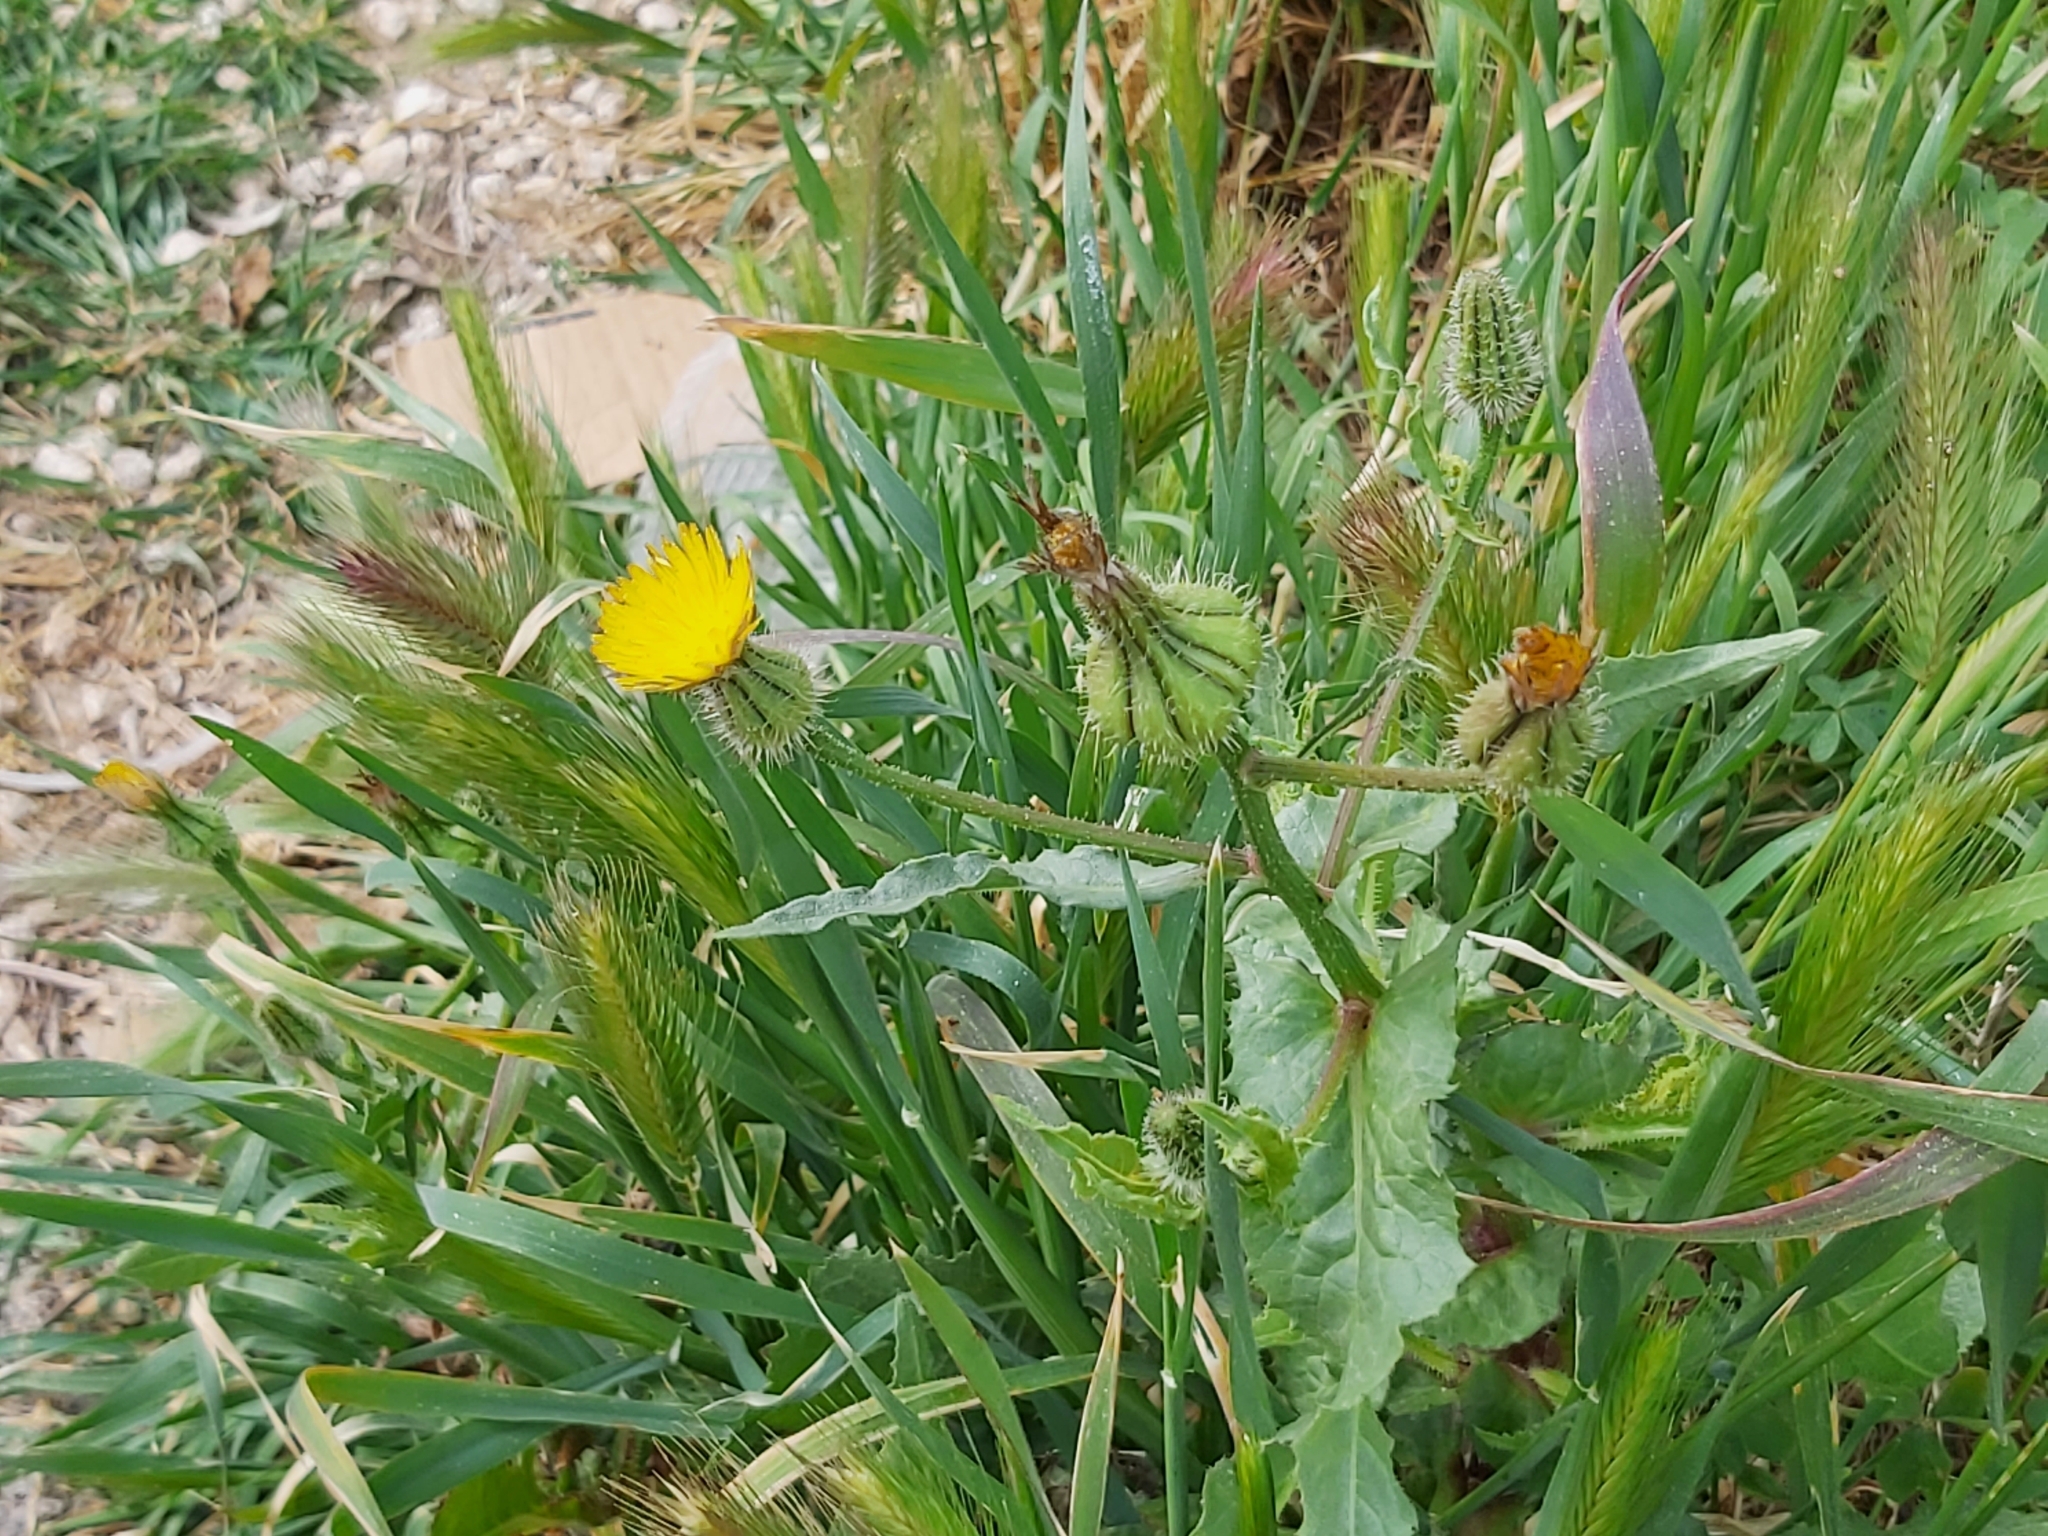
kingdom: Plantae
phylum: Tracheophyta
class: Magnoliopsida
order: Asterales
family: Asteraceae
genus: Urospermum
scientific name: Urospermum picroides
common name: False hawkbit
